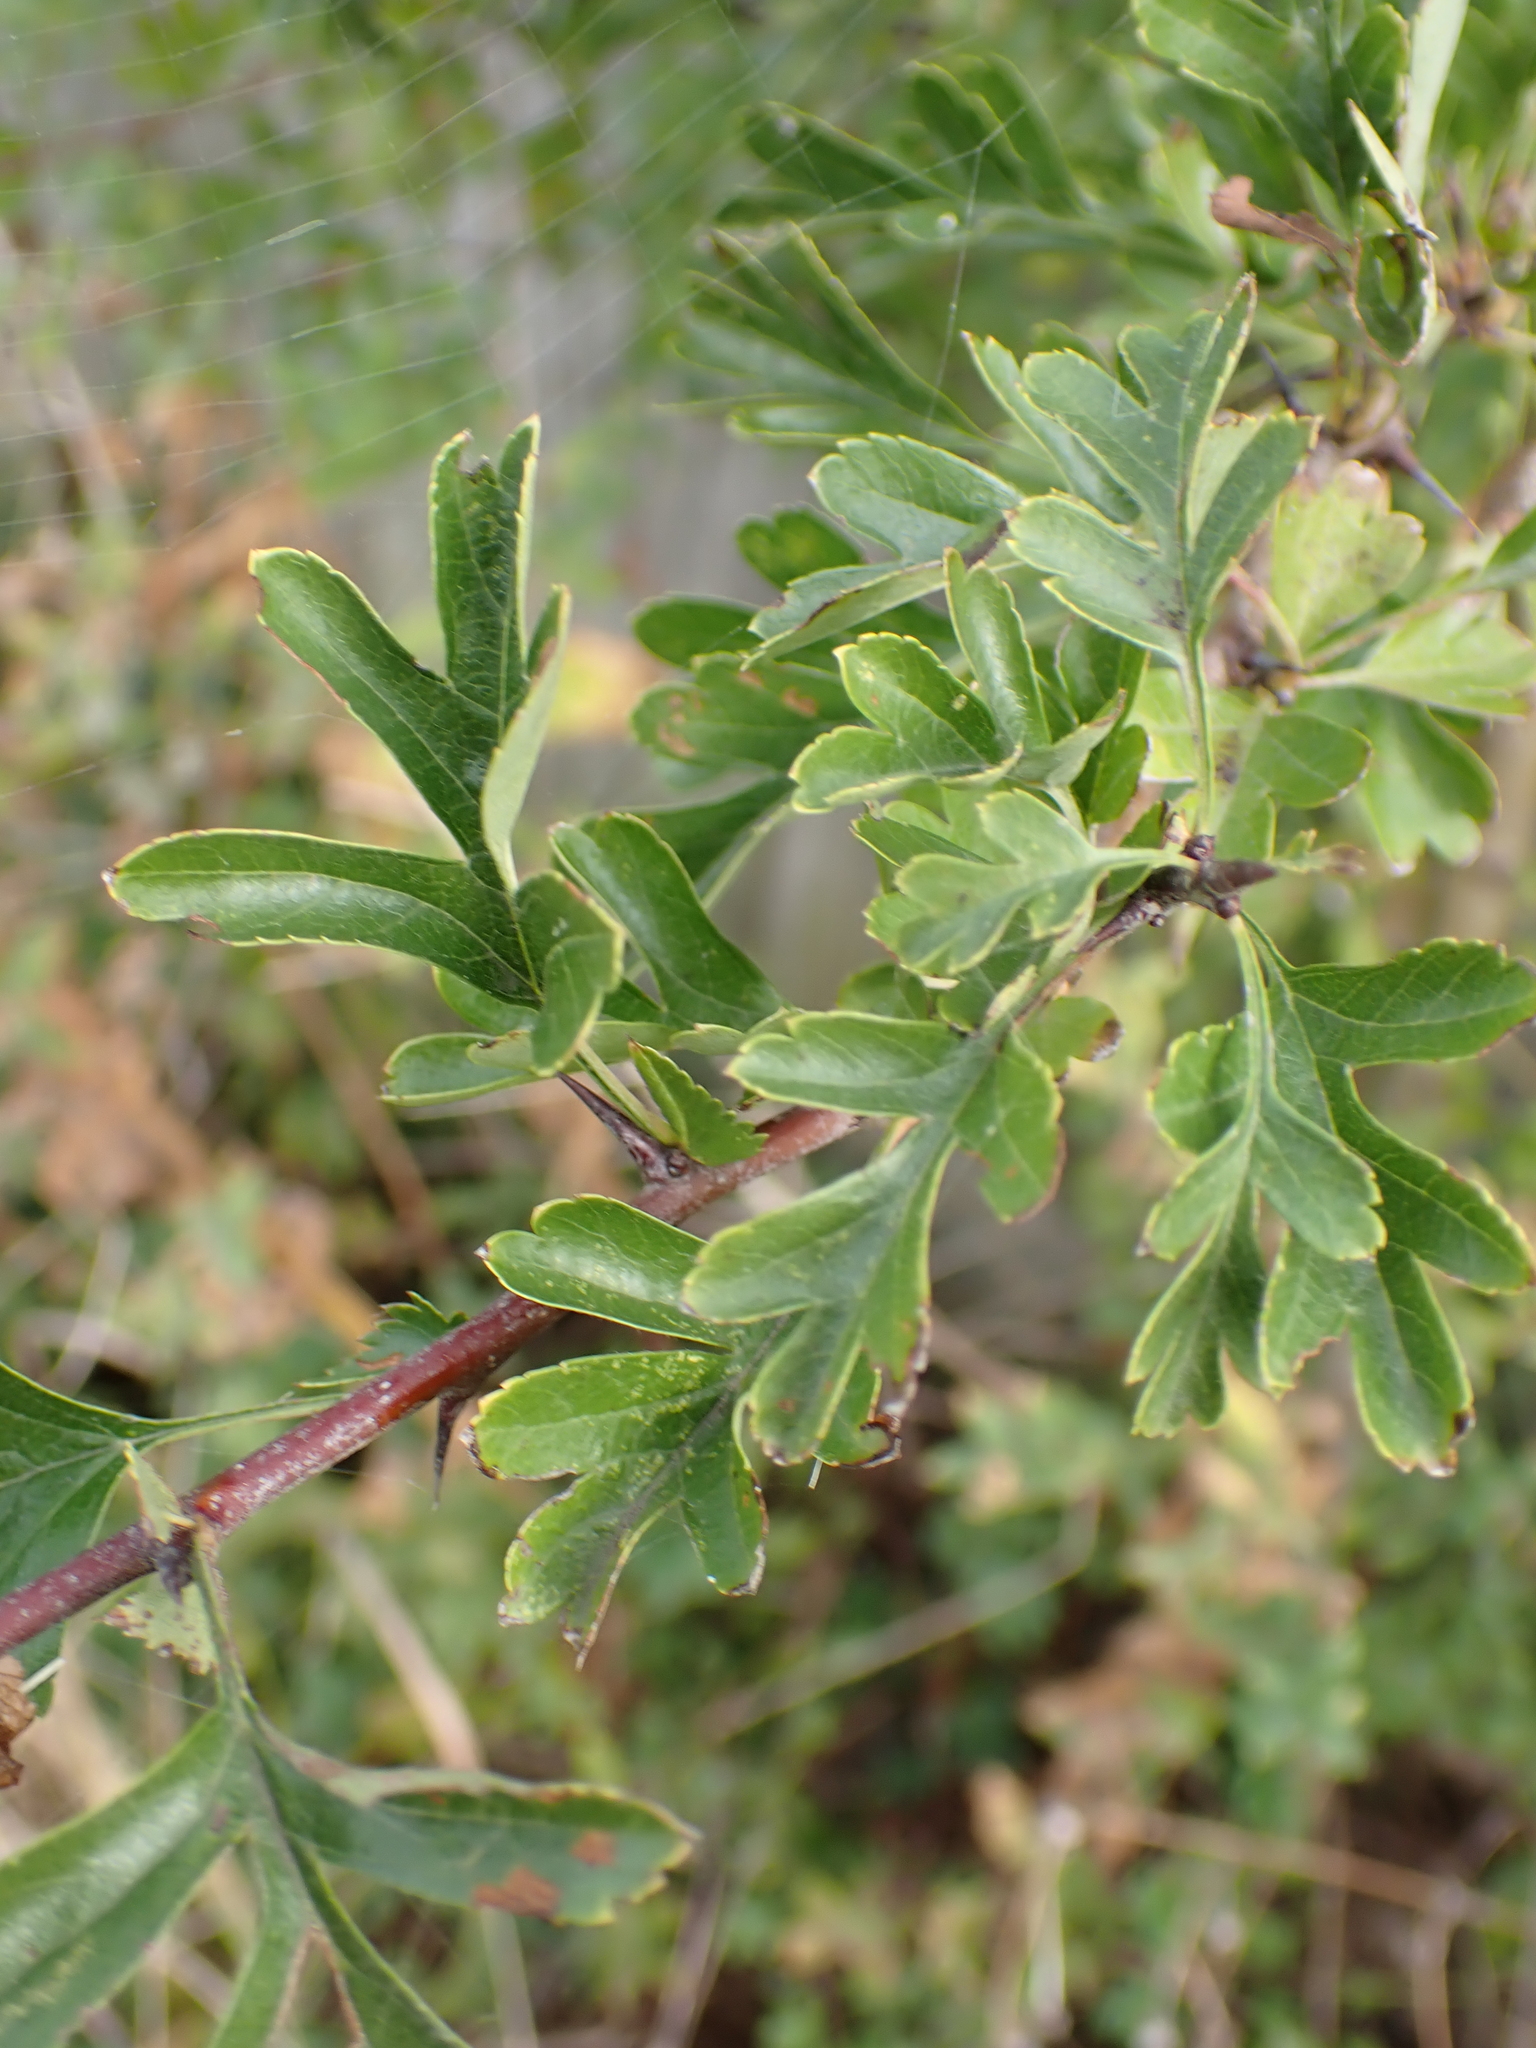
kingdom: Plantae
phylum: Tracheophyta
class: Magnoliopsida
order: Rosales
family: Rosaceae
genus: Crataegus
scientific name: Crataegus monogyna
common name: Hawthorn
